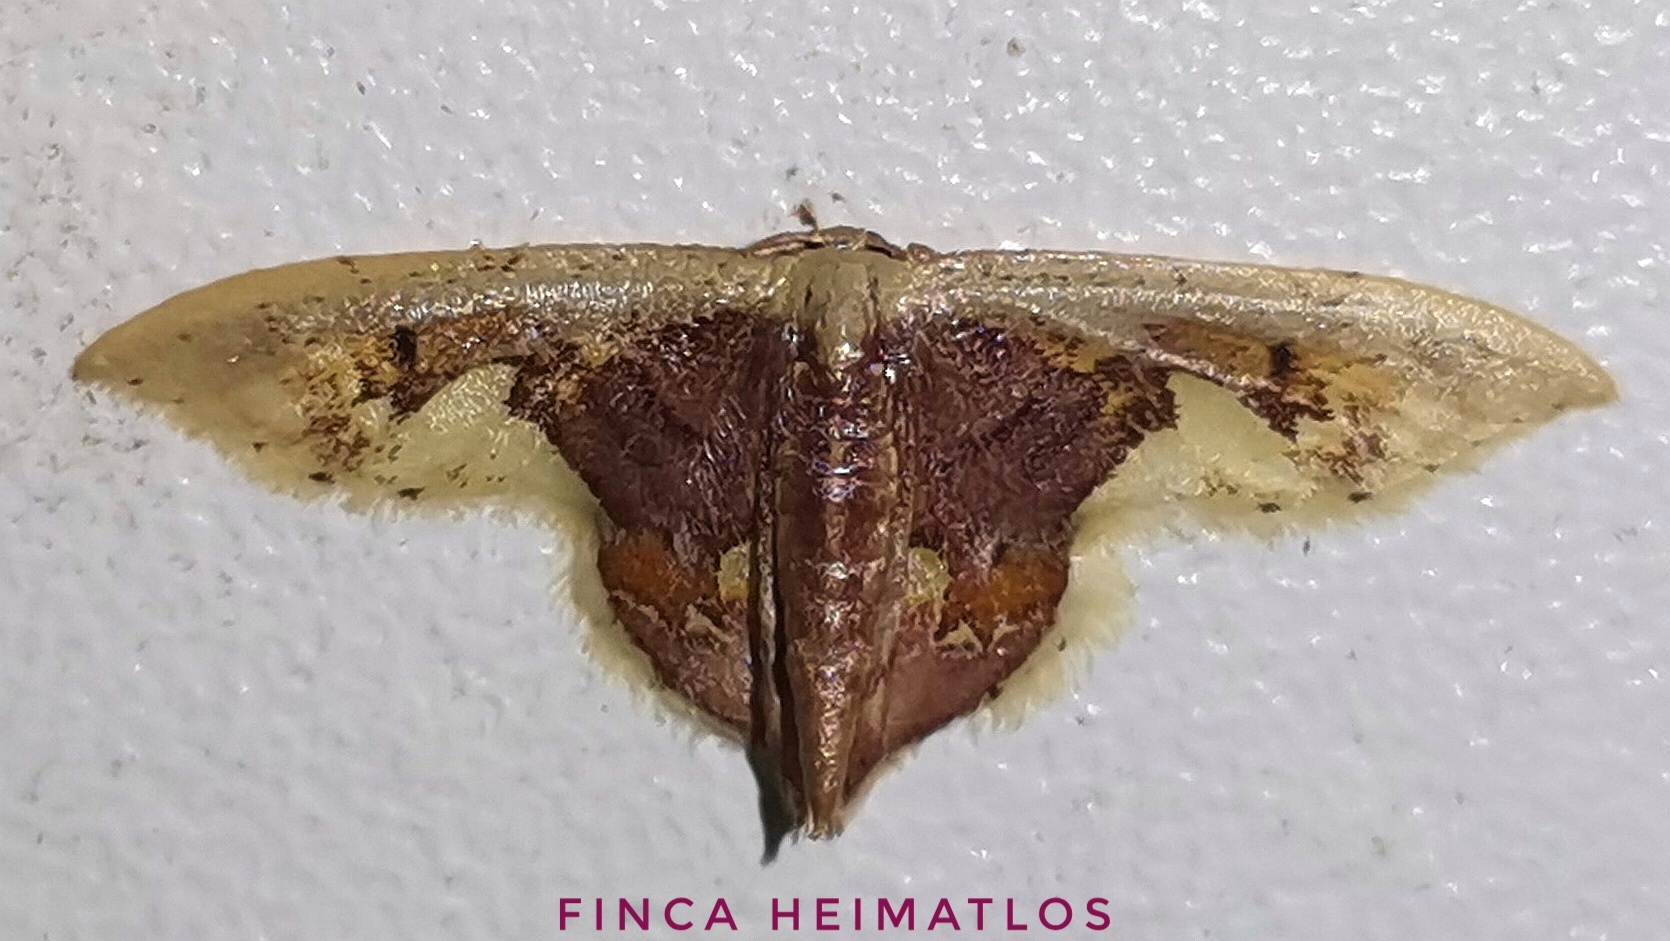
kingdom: Animalia
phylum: Arthropoda
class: Insecta
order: Lepidoptera
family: Geometridae
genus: Idaea
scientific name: Idaea flavicosta
